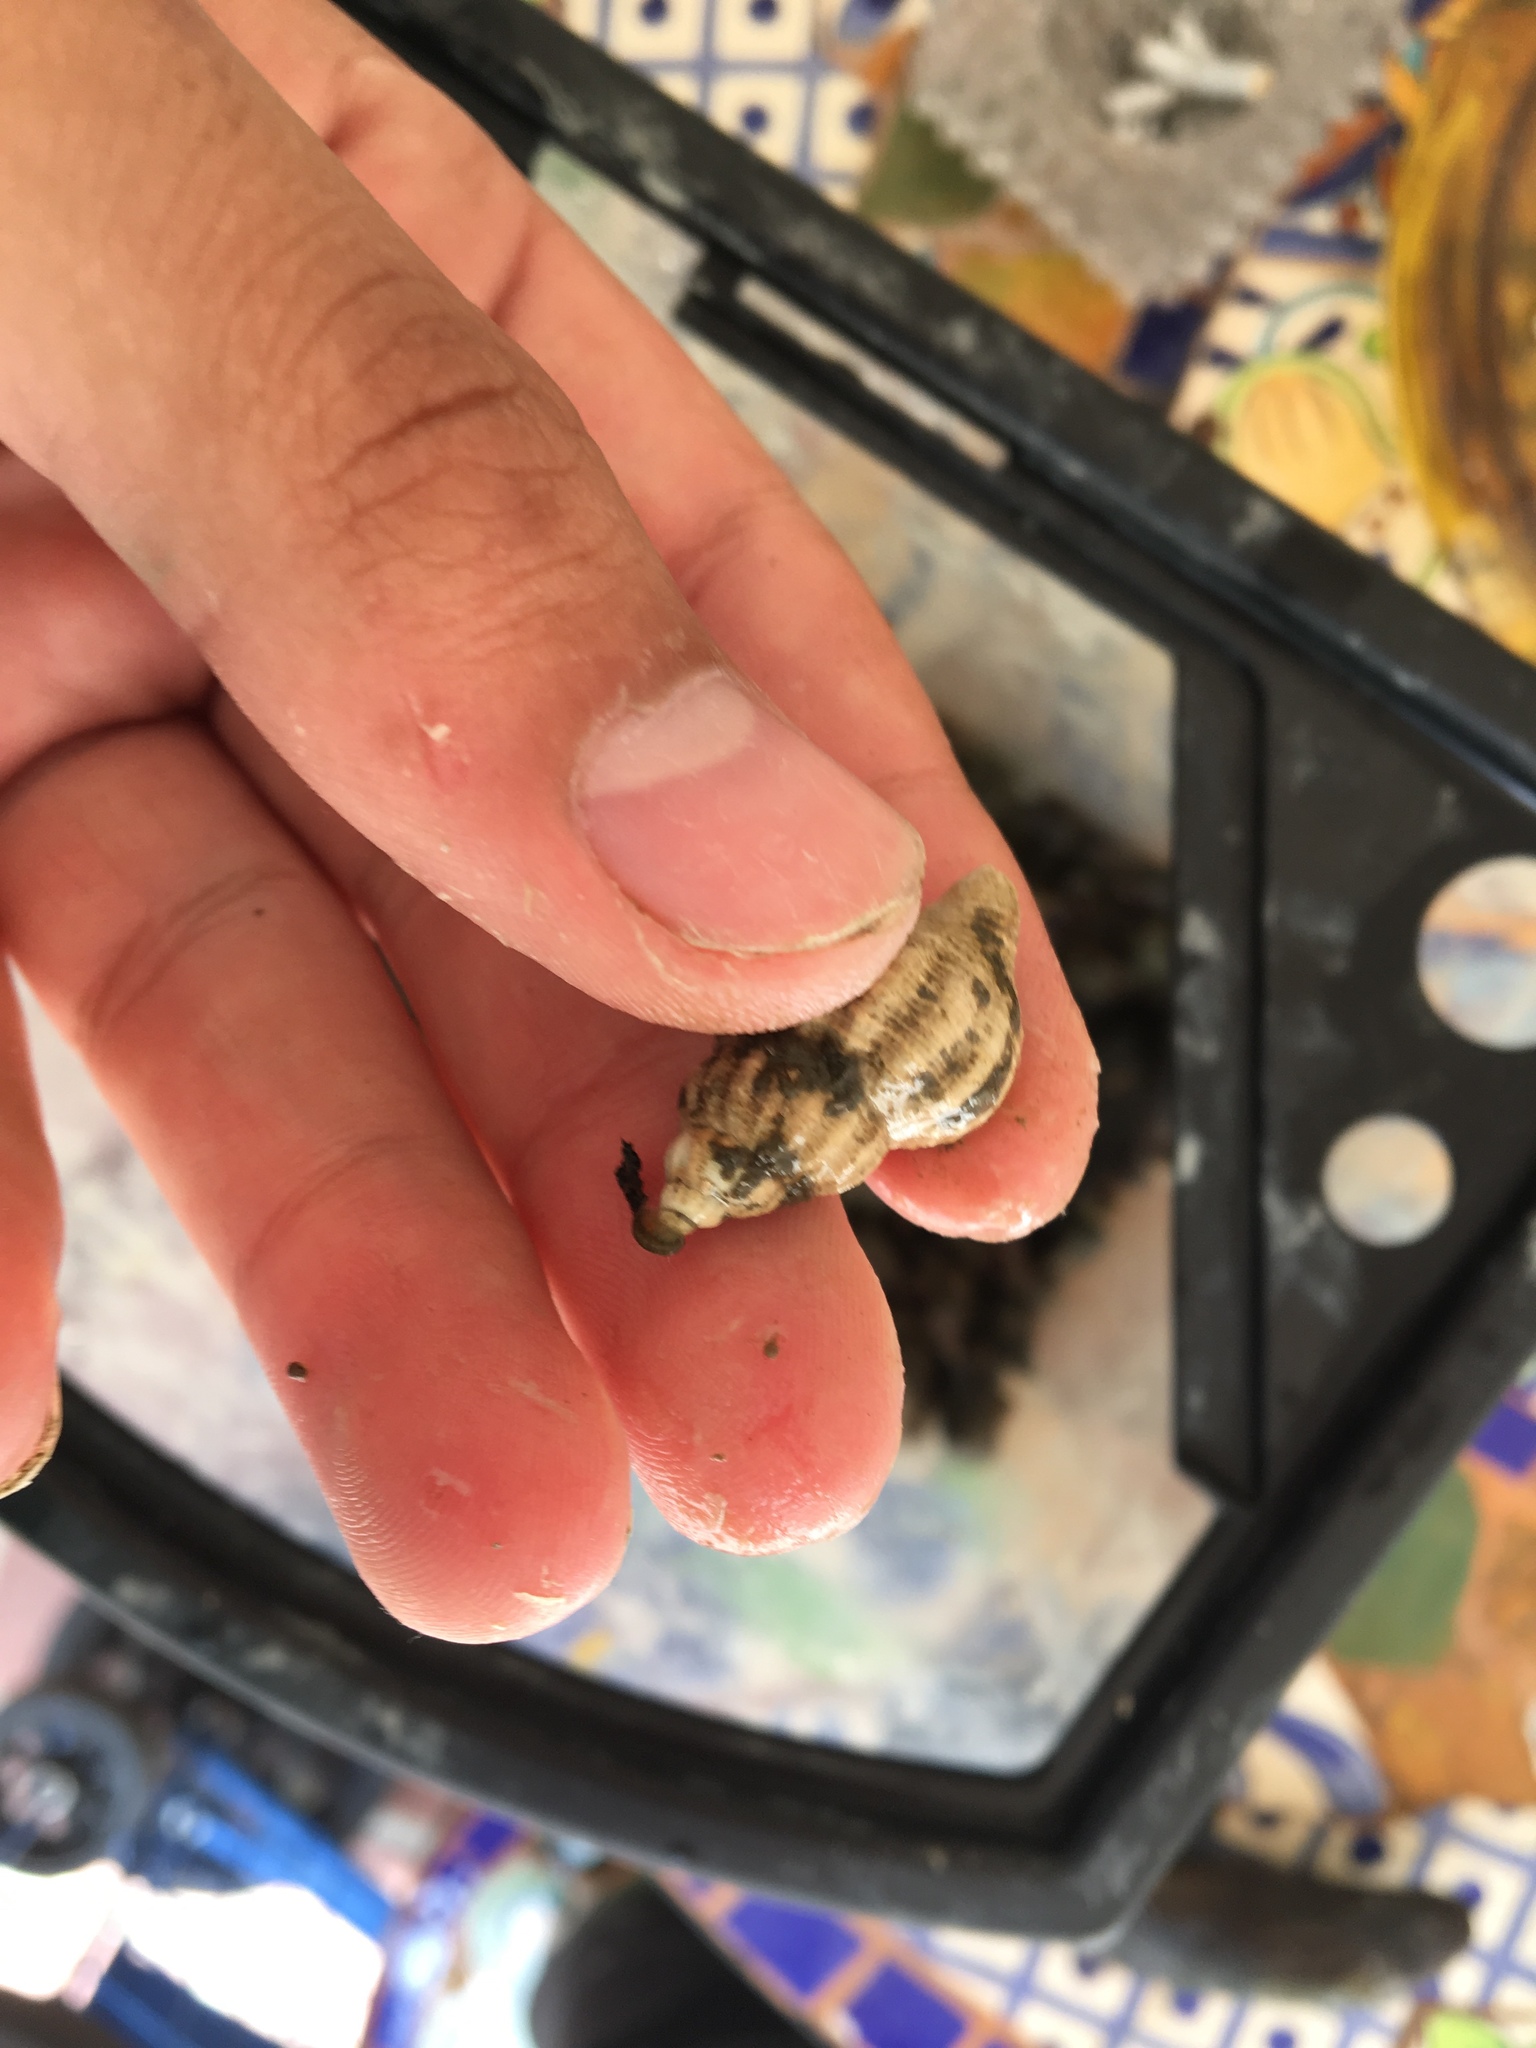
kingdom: Animalia
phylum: Mollusca
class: Gastropoda
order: Neogastropoda
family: Muricidae
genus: Urosalpinx
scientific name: Urosalpinx cinerea
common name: American sting winkle
